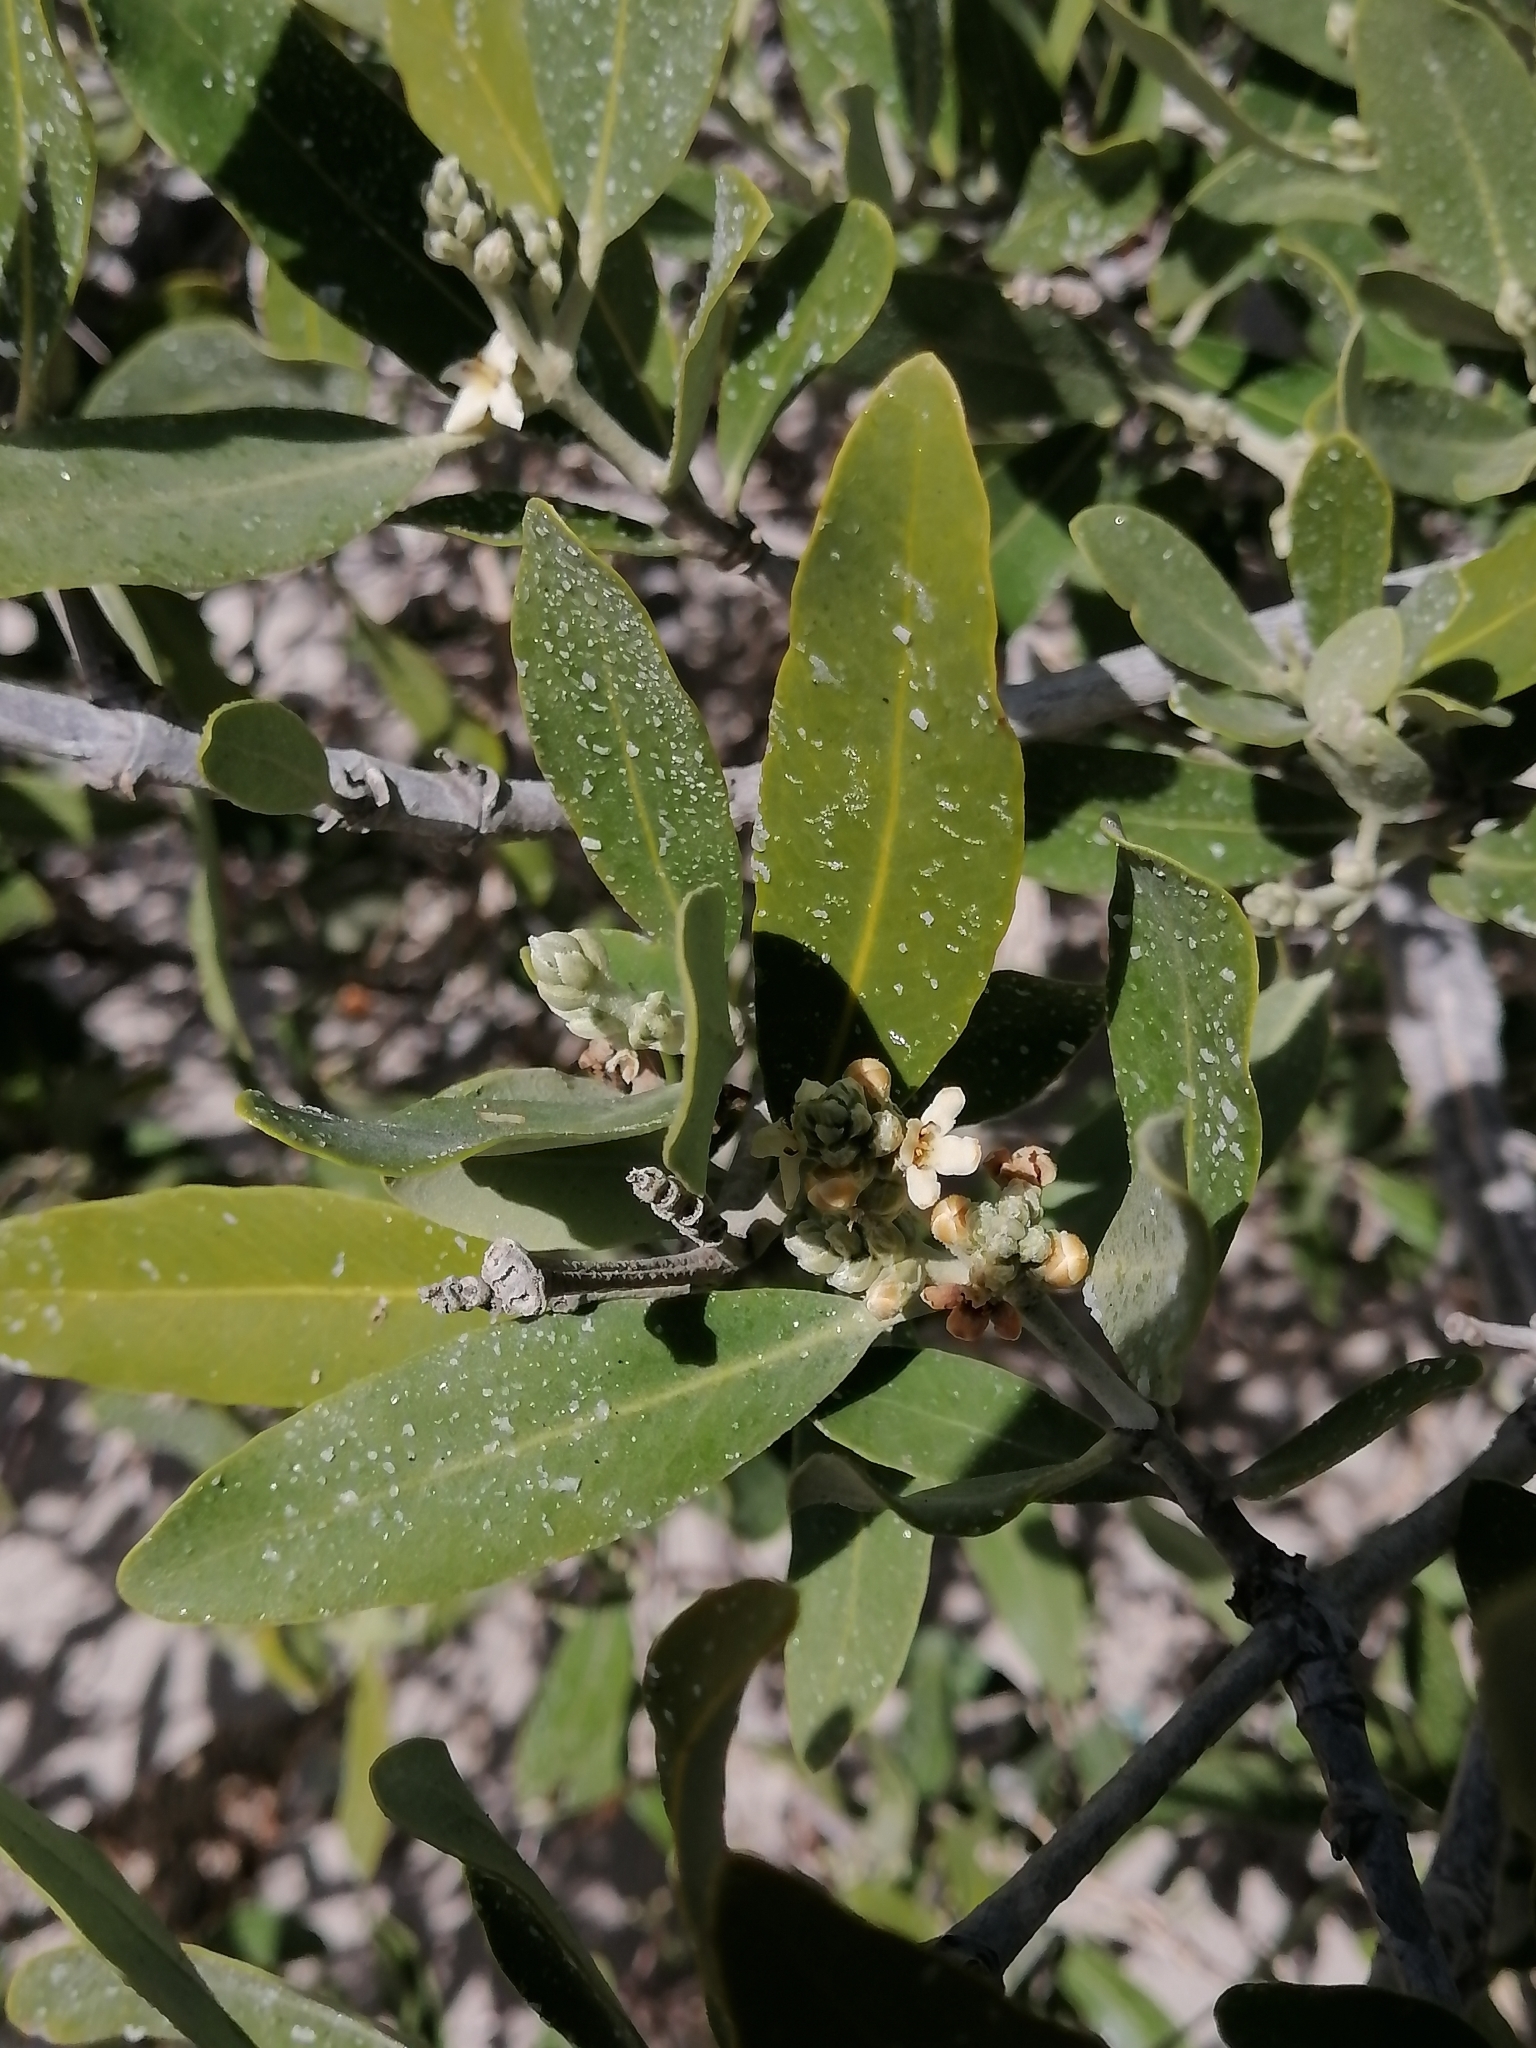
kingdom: Plantae
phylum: Tracheophyta
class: Magnoliopsida
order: Lamiales
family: Acanthaceae
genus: Avicennia
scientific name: Avicennia germinans
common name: Black mangrove
